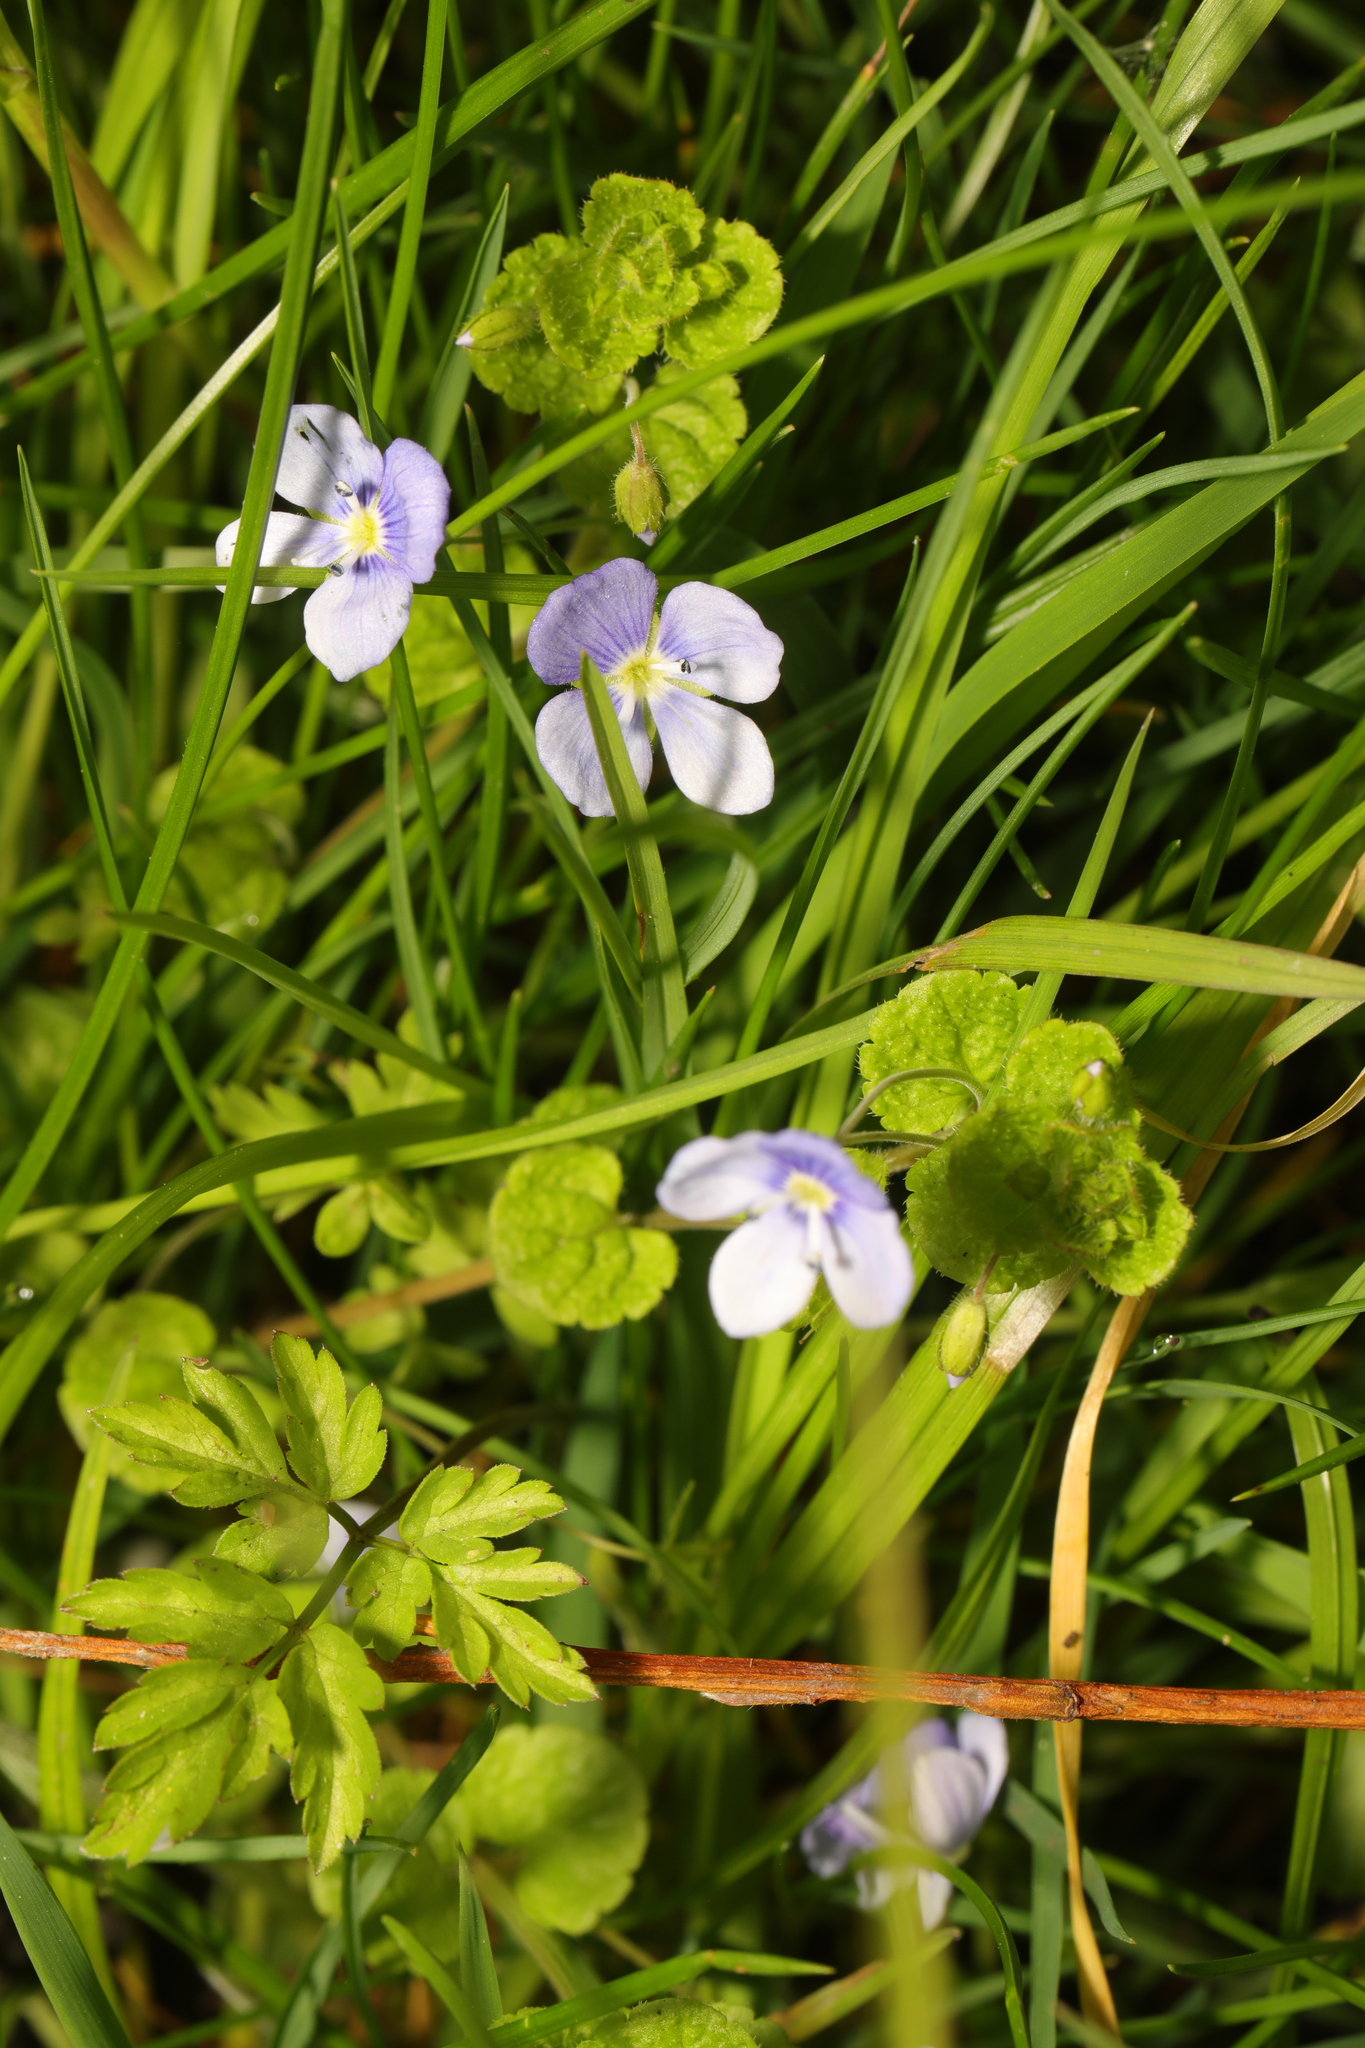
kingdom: Plantae
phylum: Tracheophyta
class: Magnoliopsida
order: Lamiales
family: Plantaginaceae
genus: Veronica
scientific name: Veronica filiformis
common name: Slender speedwell
